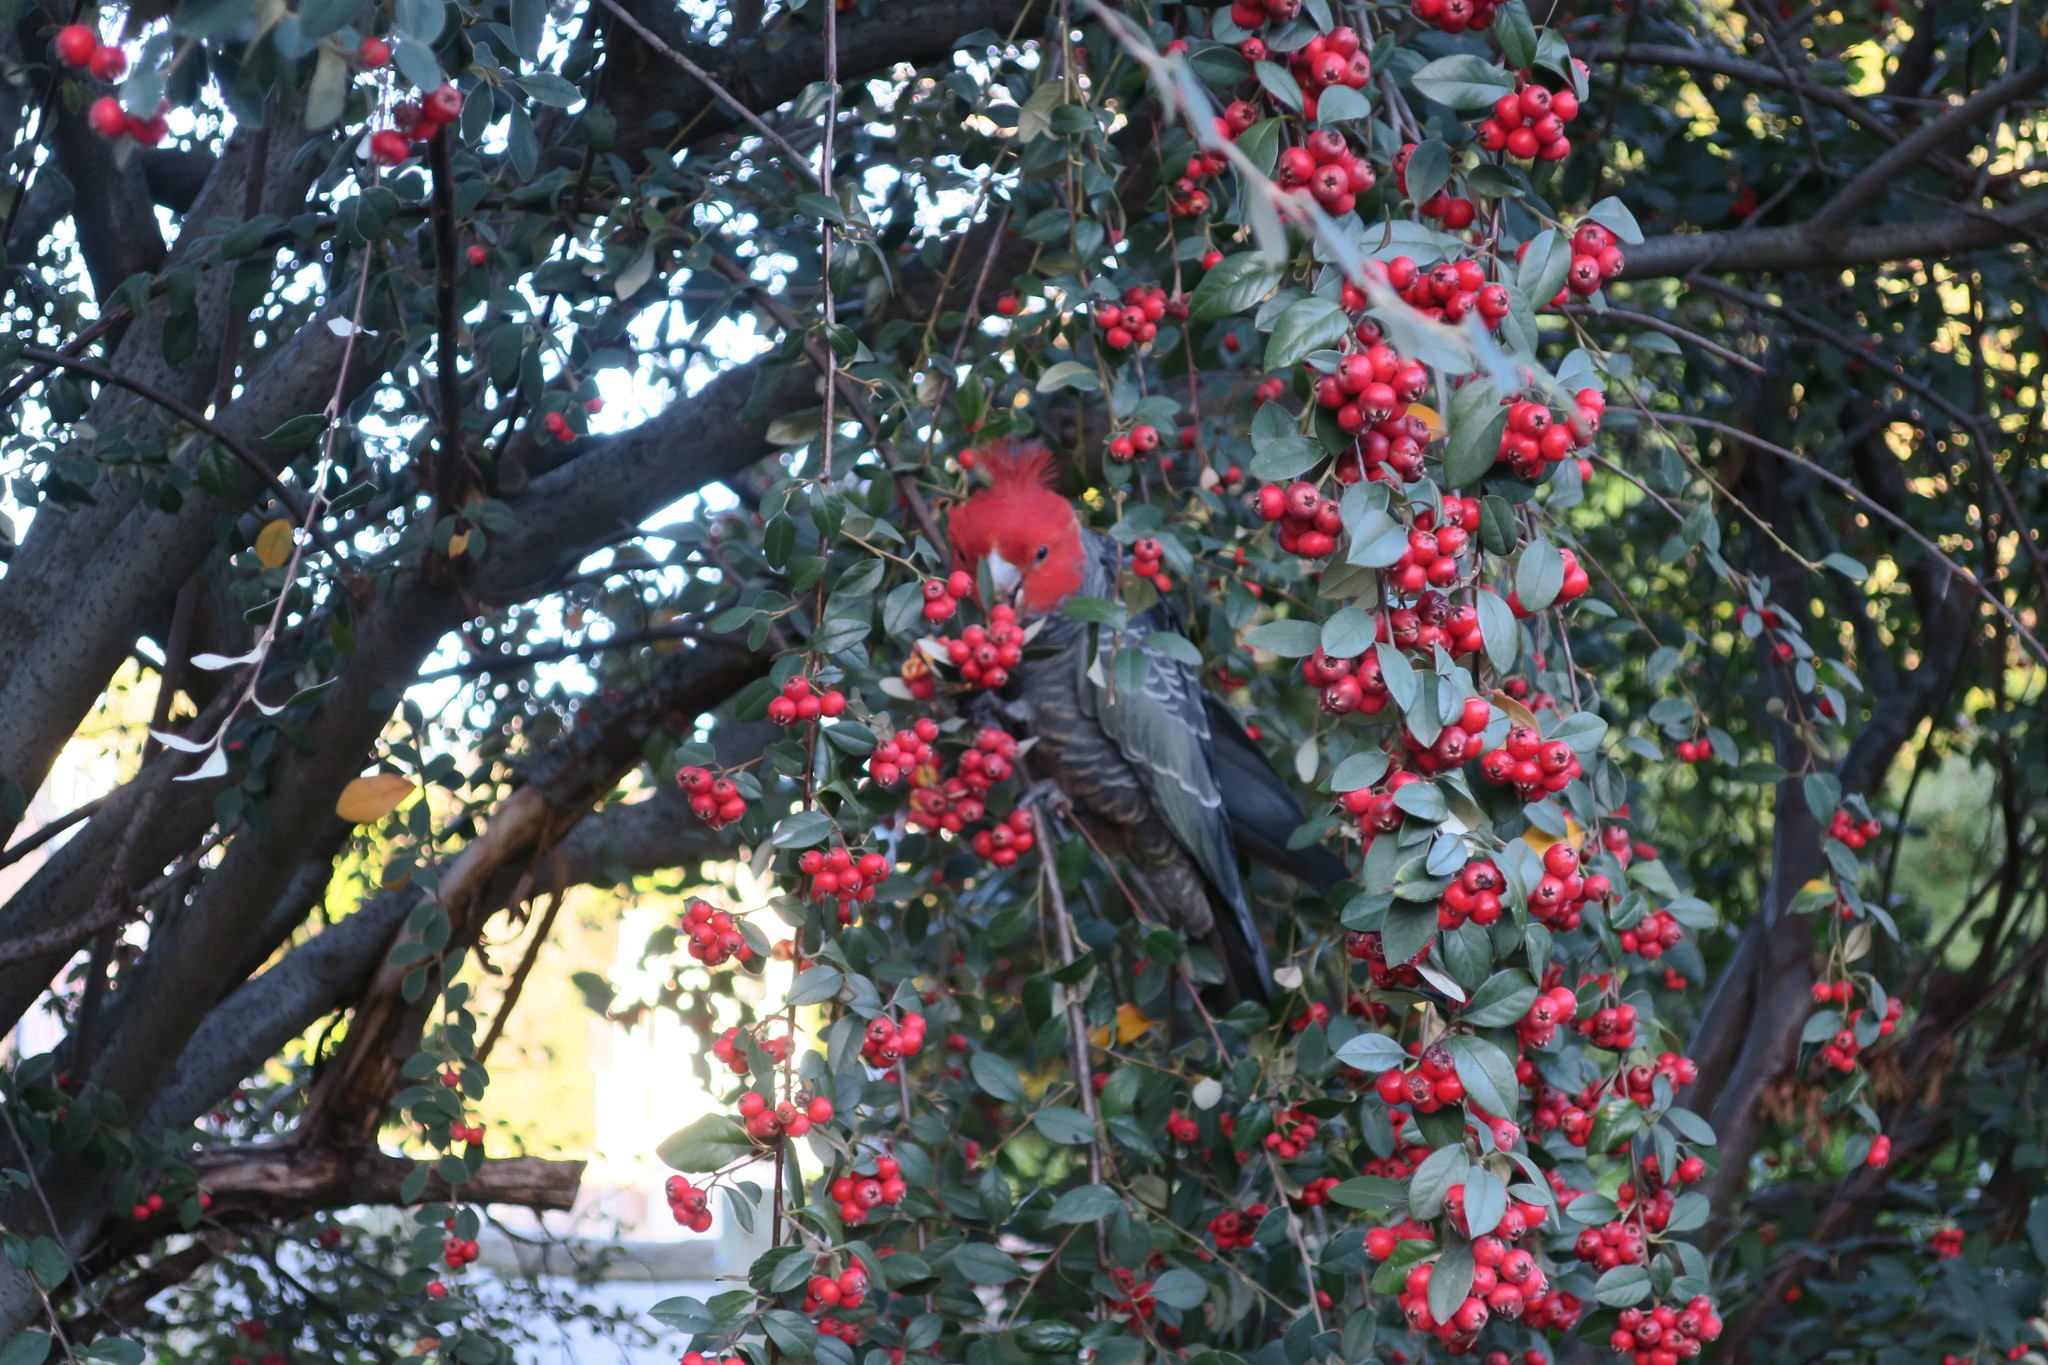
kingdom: Animalia
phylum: Chordata
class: Aves
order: Psittaciformes
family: Psittacidae
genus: Callocephalon
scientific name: Callocephalon fimbriatum
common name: Gang-gang cockatoo
